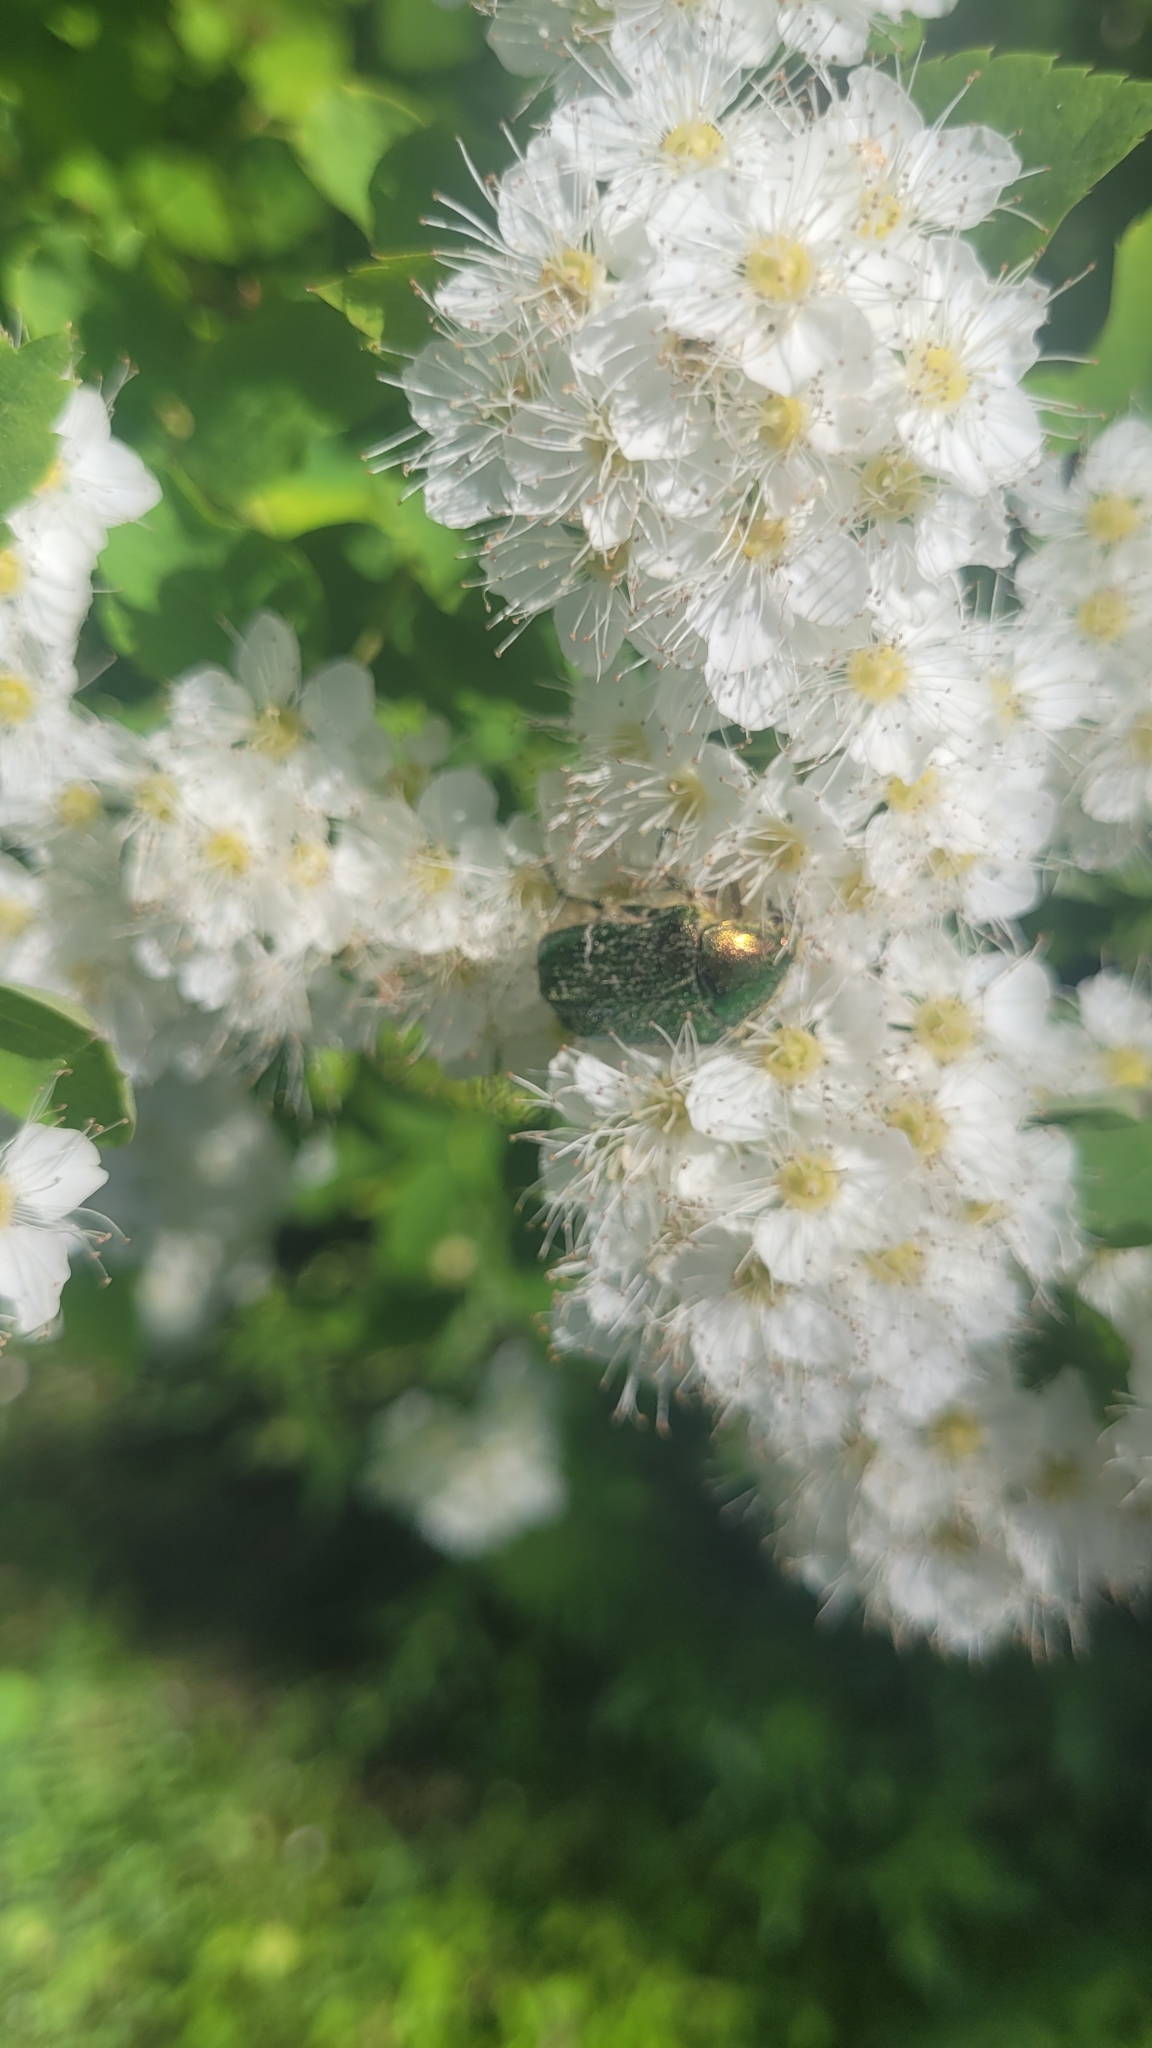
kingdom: Animalia
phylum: Arthropoda
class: Insecta
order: Coleoptera
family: Scarabaeidae
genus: Cetonia
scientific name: Cetonia aurata
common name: Rose chafer
